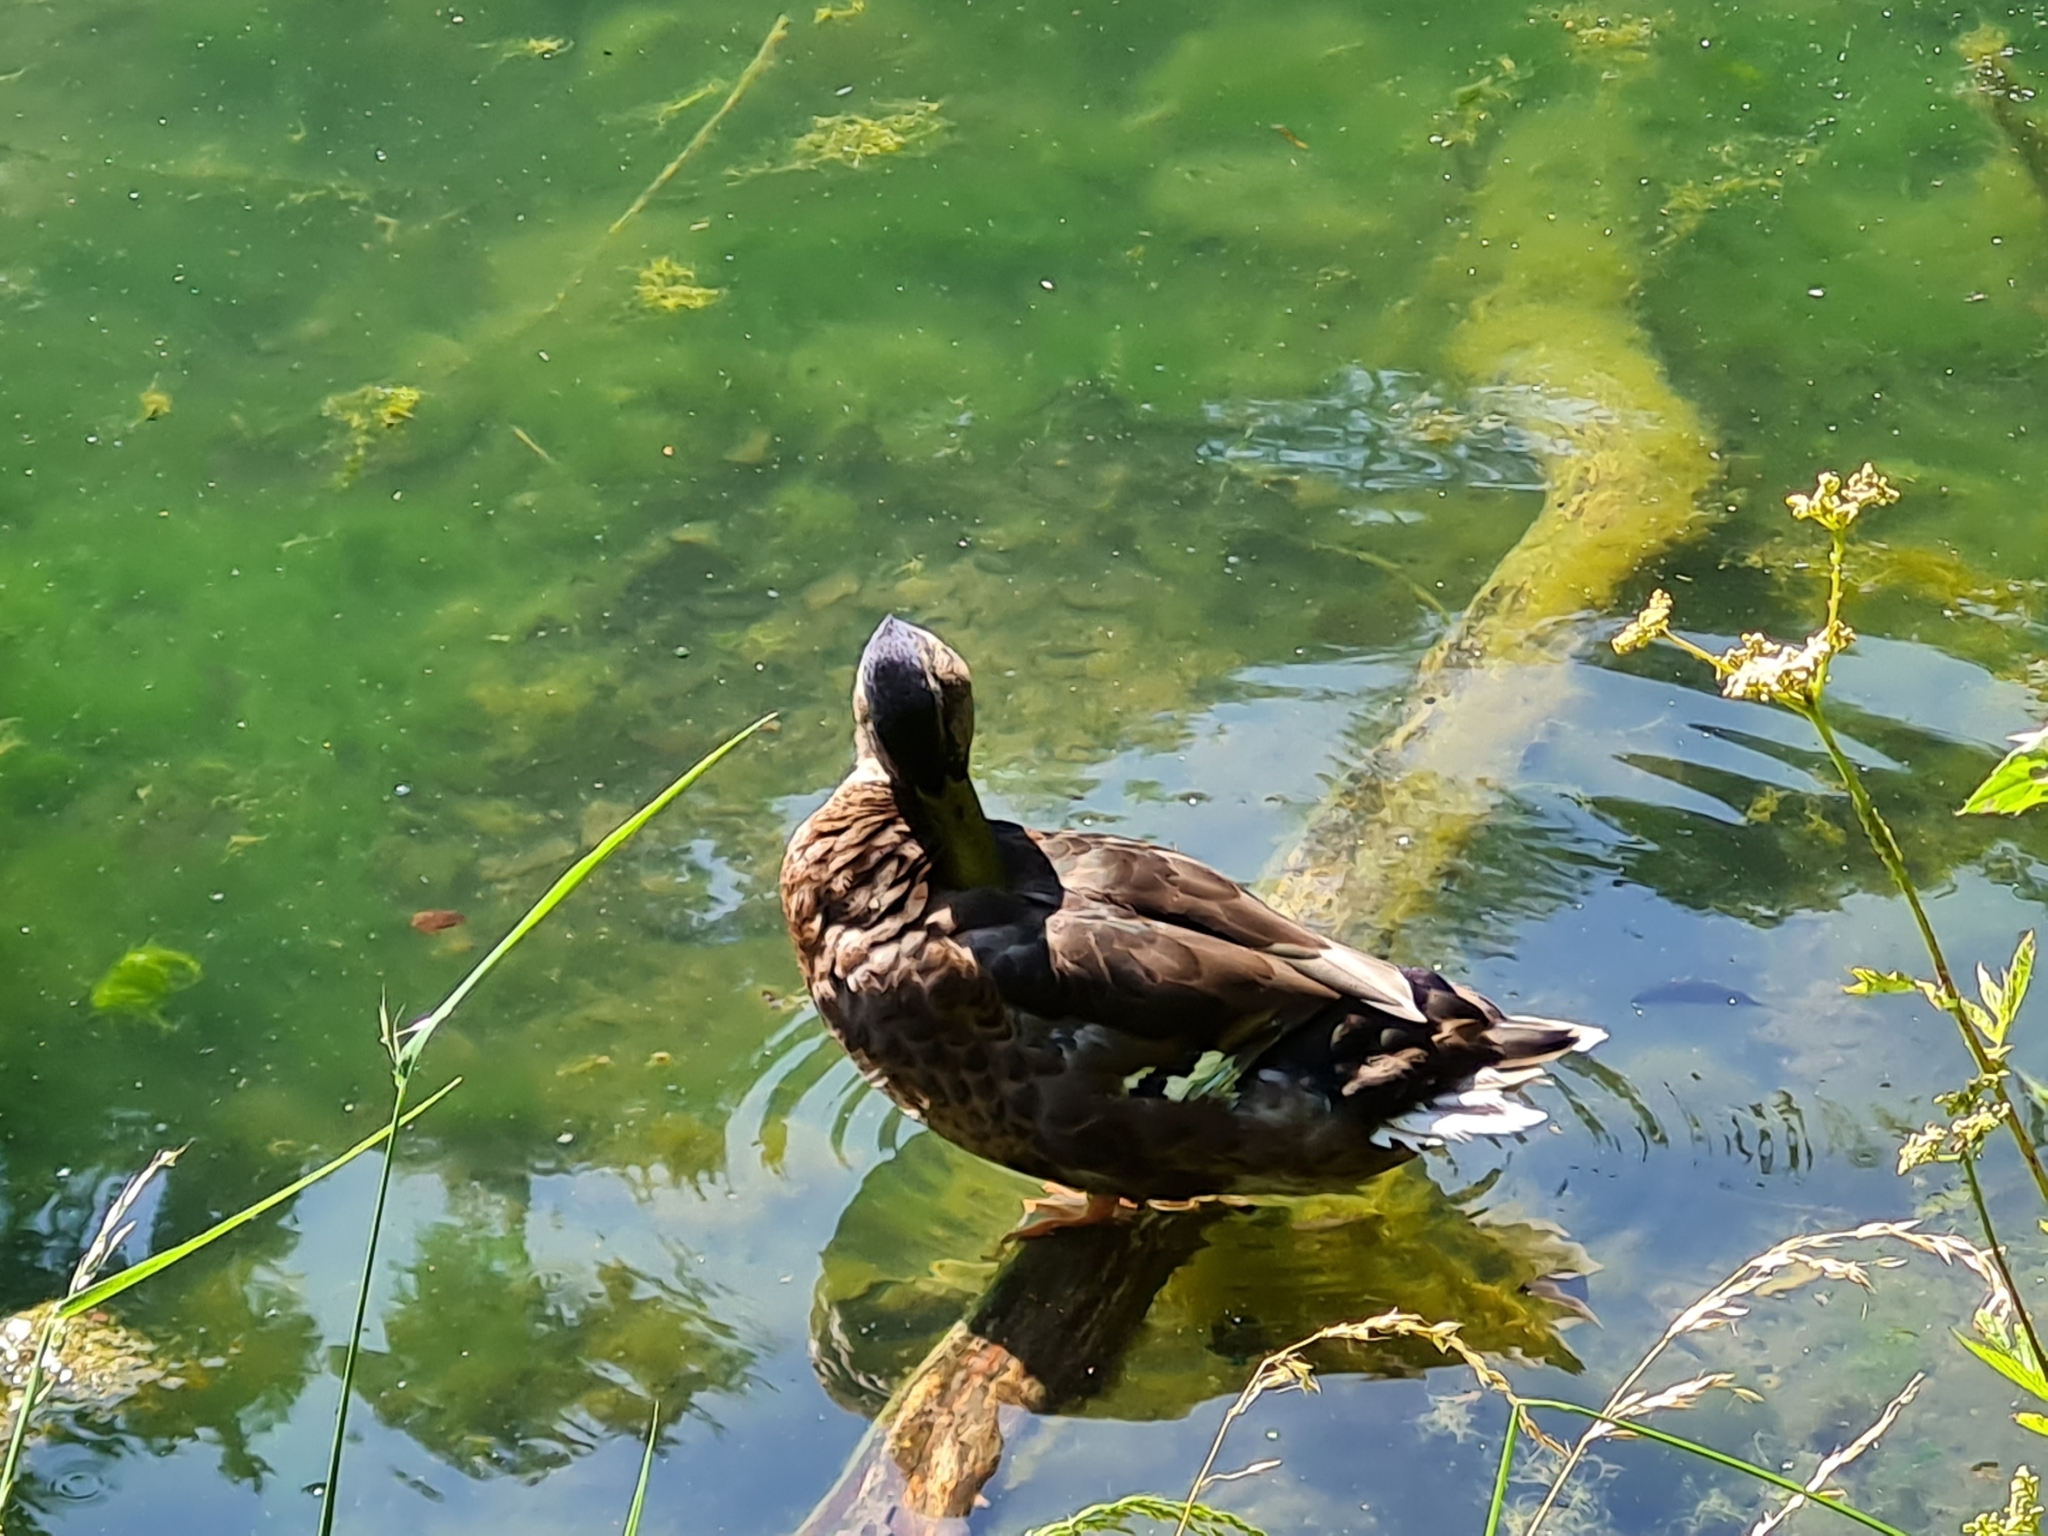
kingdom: Animalia
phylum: Chordata
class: Aves
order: Anseriformes
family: Anatidae
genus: Anas
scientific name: Anas platyrhynchos
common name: Mallard
